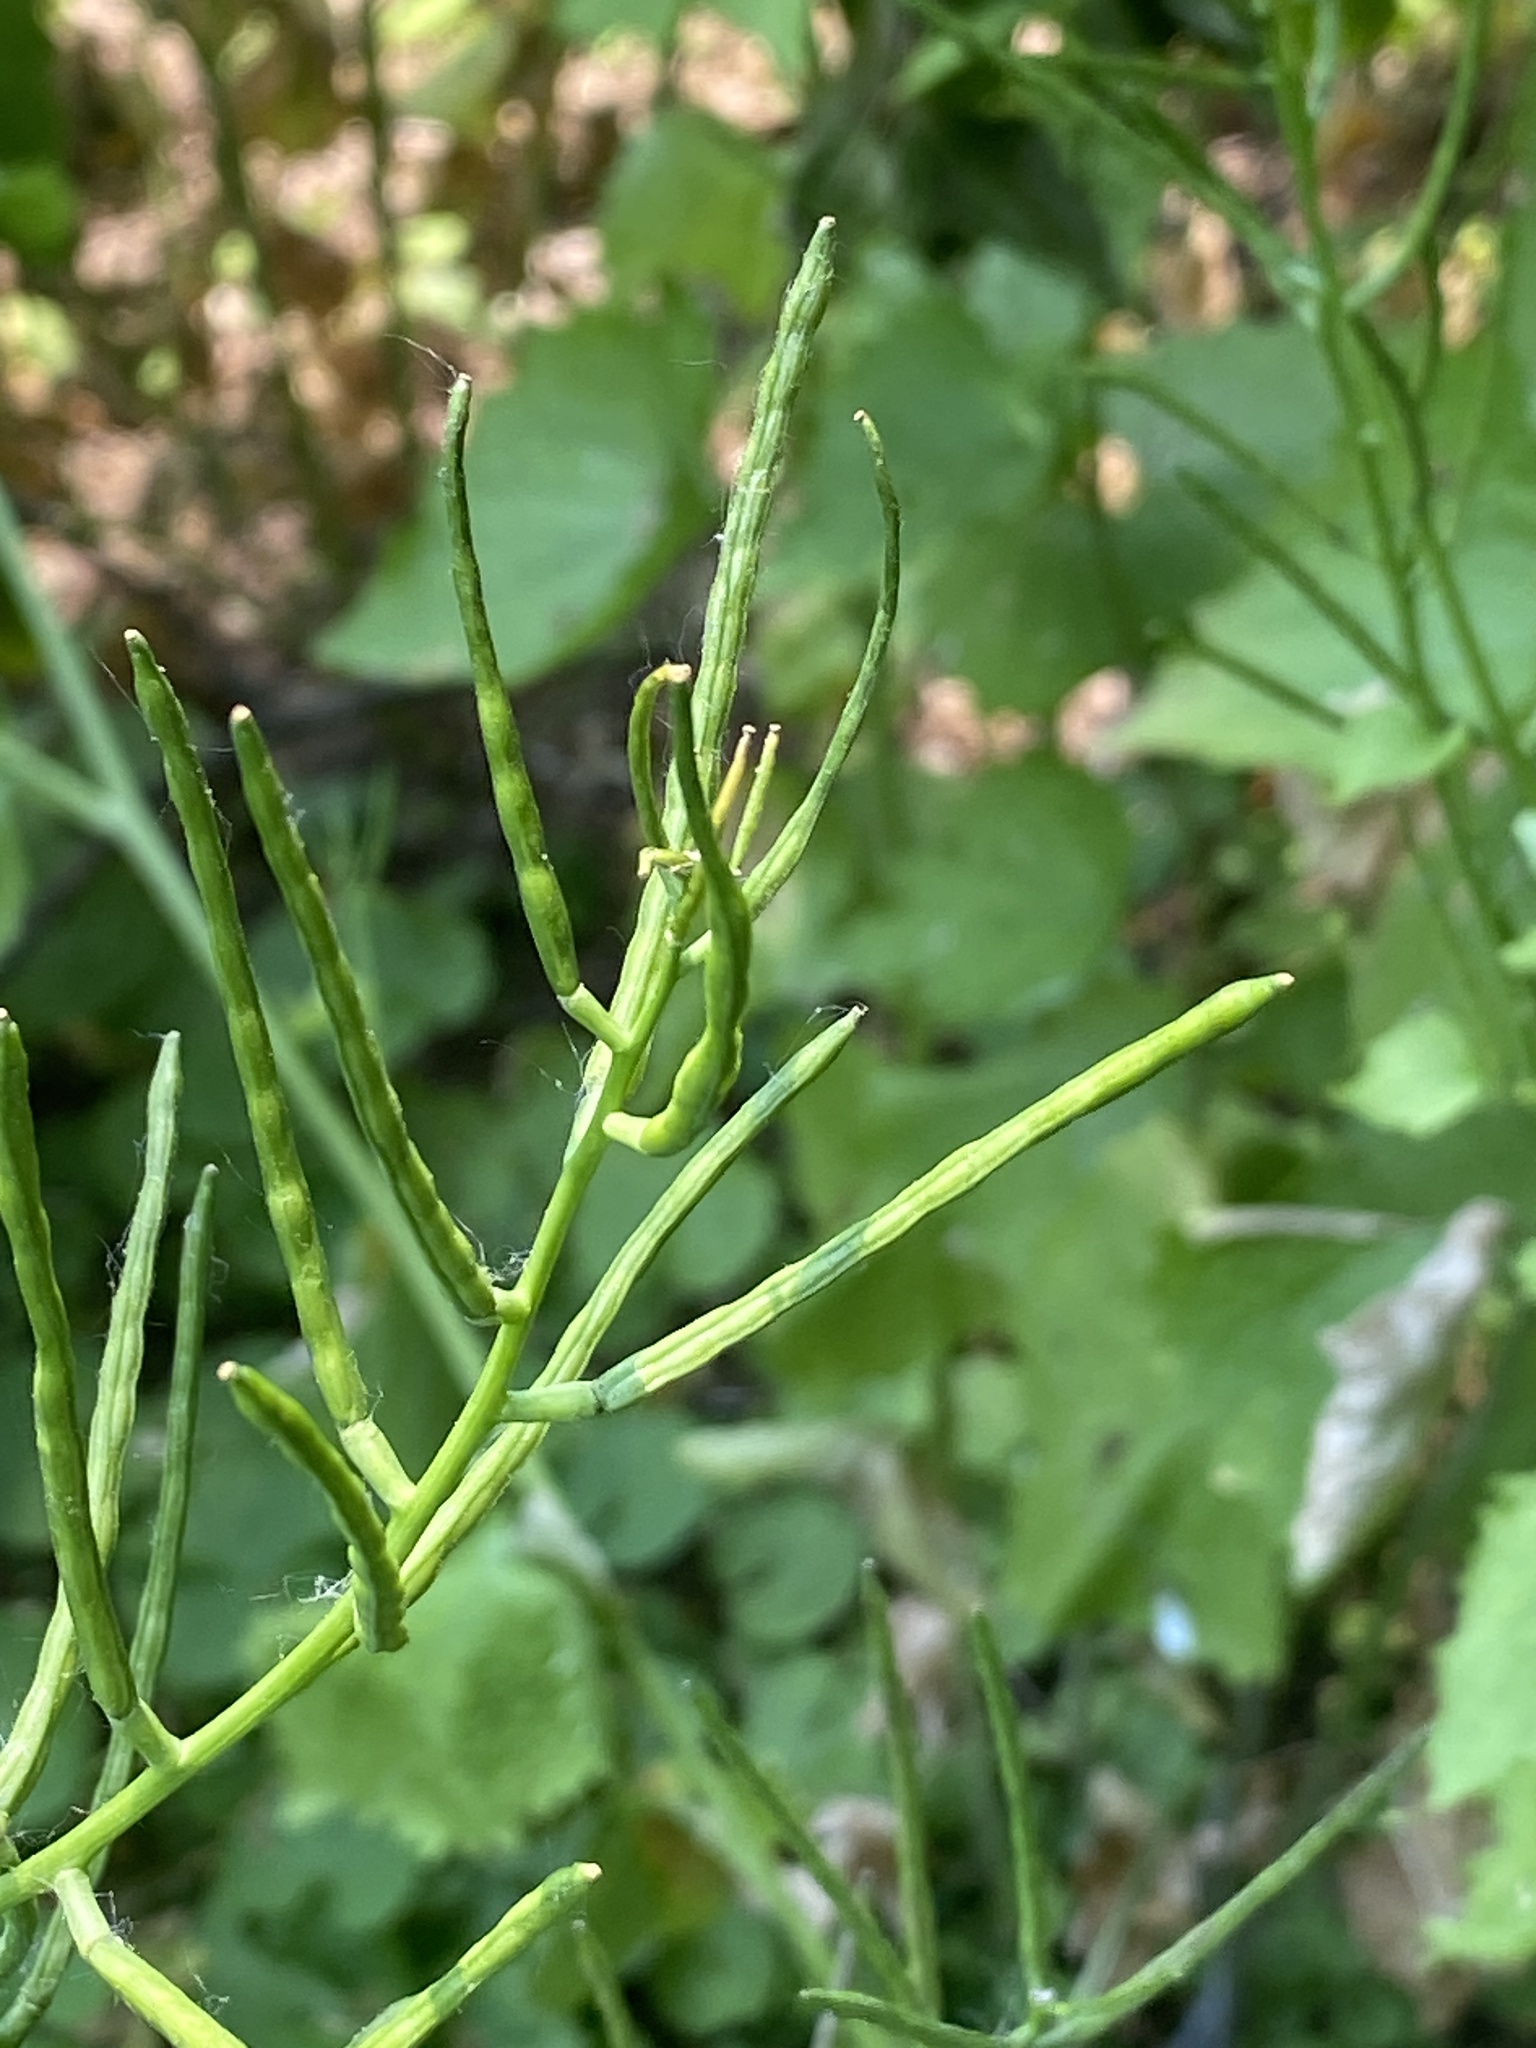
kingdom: Plantae
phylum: Tracheophyta
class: Magnoliopsida
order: Brassicales
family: Brassicaceae
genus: Alliaria
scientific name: Alliaria petiolata
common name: Garlic mustard
